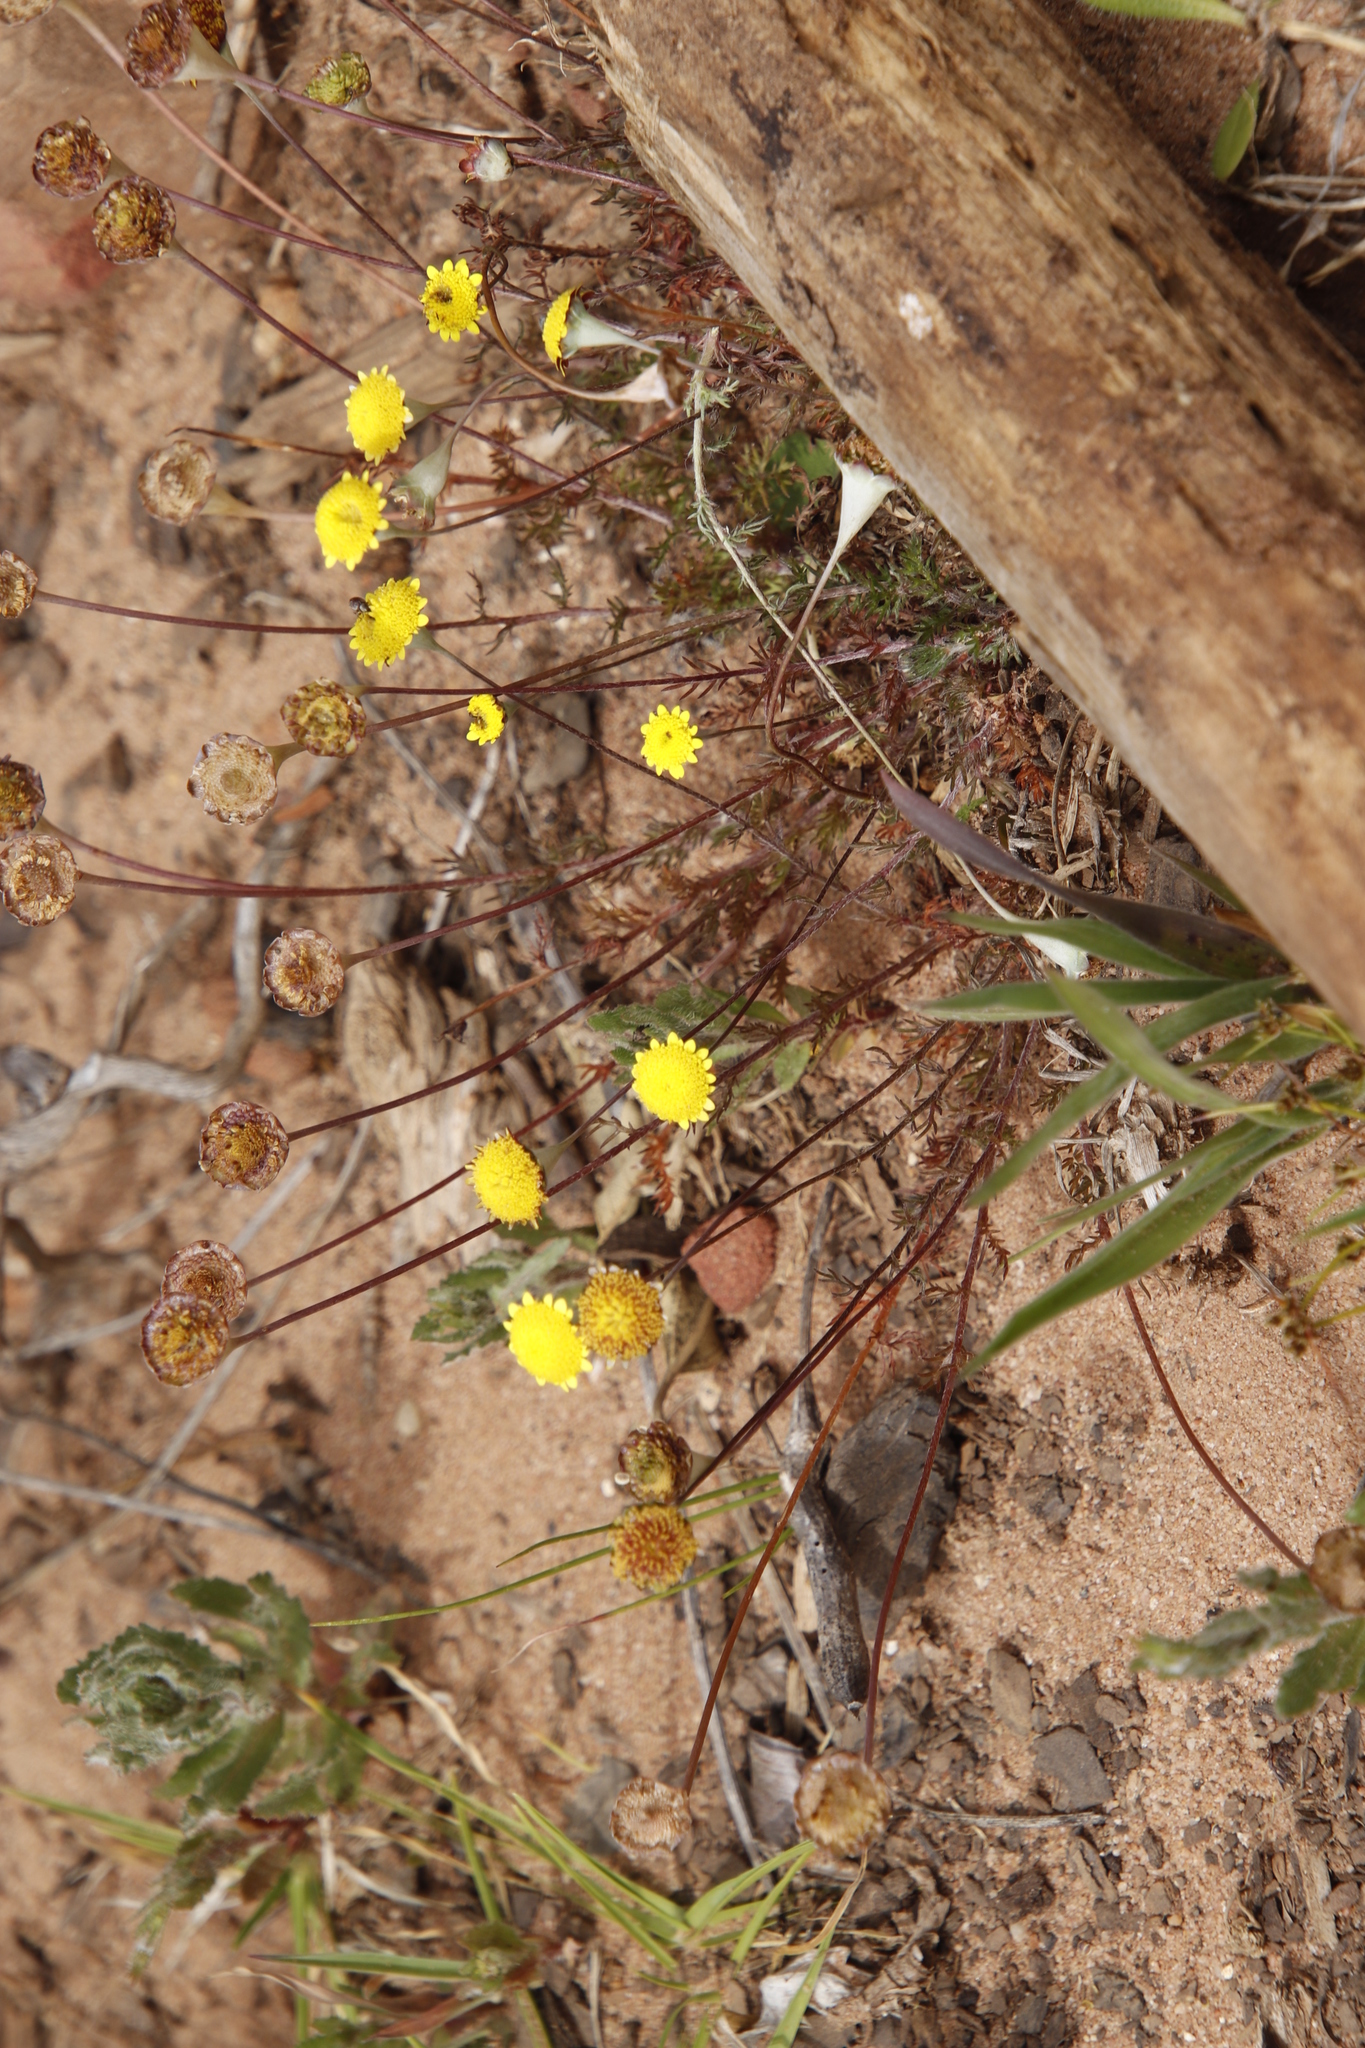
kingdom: Plantae
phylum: Tracheophyta
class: Magnoliopsida
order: Asterales
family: Asteraceae
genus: Cotula
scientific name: Cotula pruinosa
